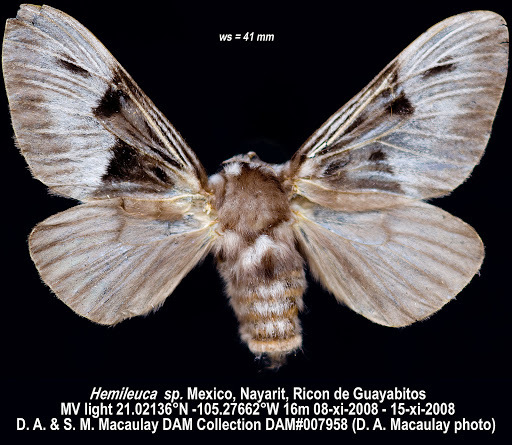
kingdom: Animalia
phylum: Arthropoda
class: Insecta
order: Lepidoptera
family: Megalopygidae
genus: Megalopyge
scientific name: Megalopyge lampra
